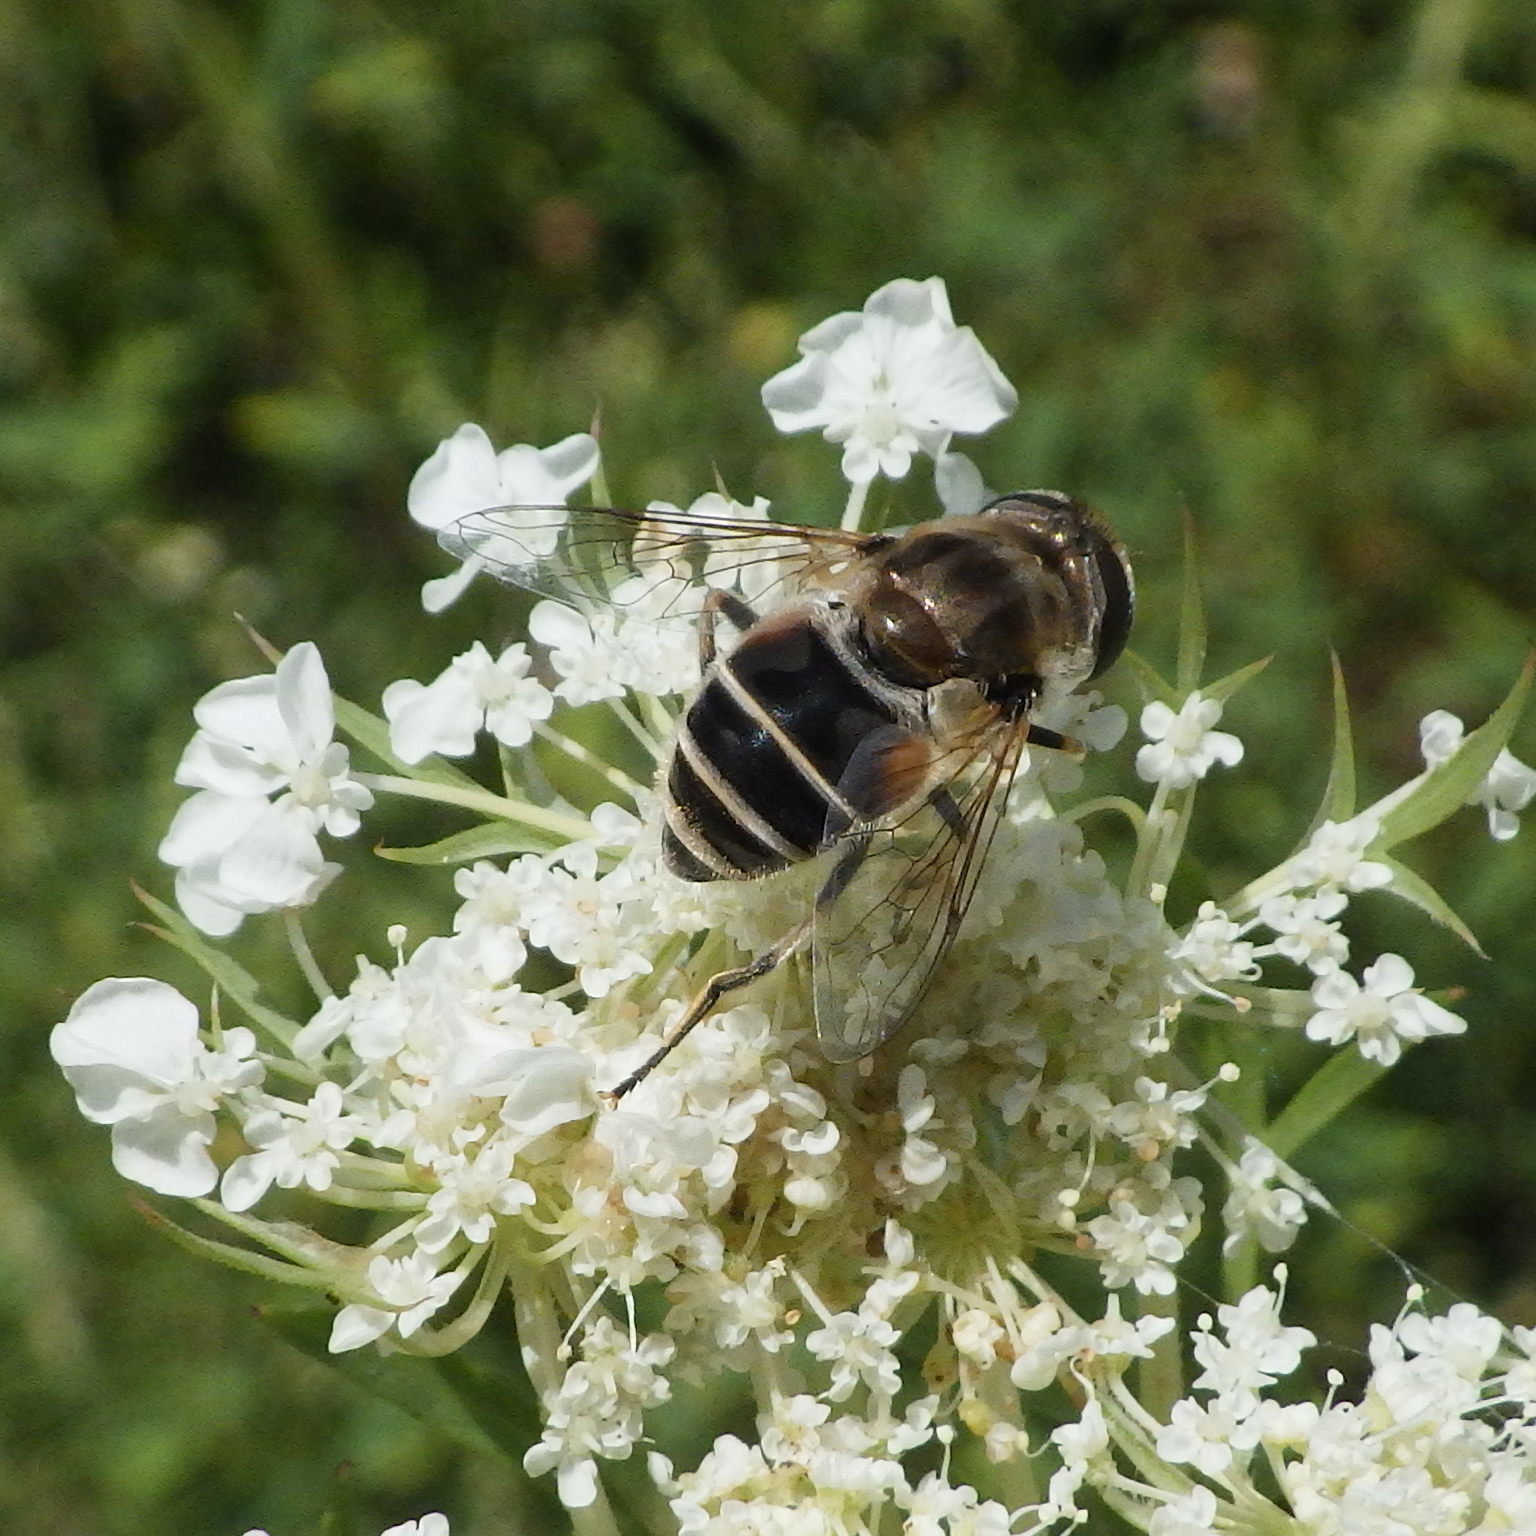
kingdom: Animalia
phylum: Arthropoda
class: Insecta
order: Diptera
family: Syrphidae
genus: Eristalis
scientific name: Eristalis arbustorum
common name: Hover fly
